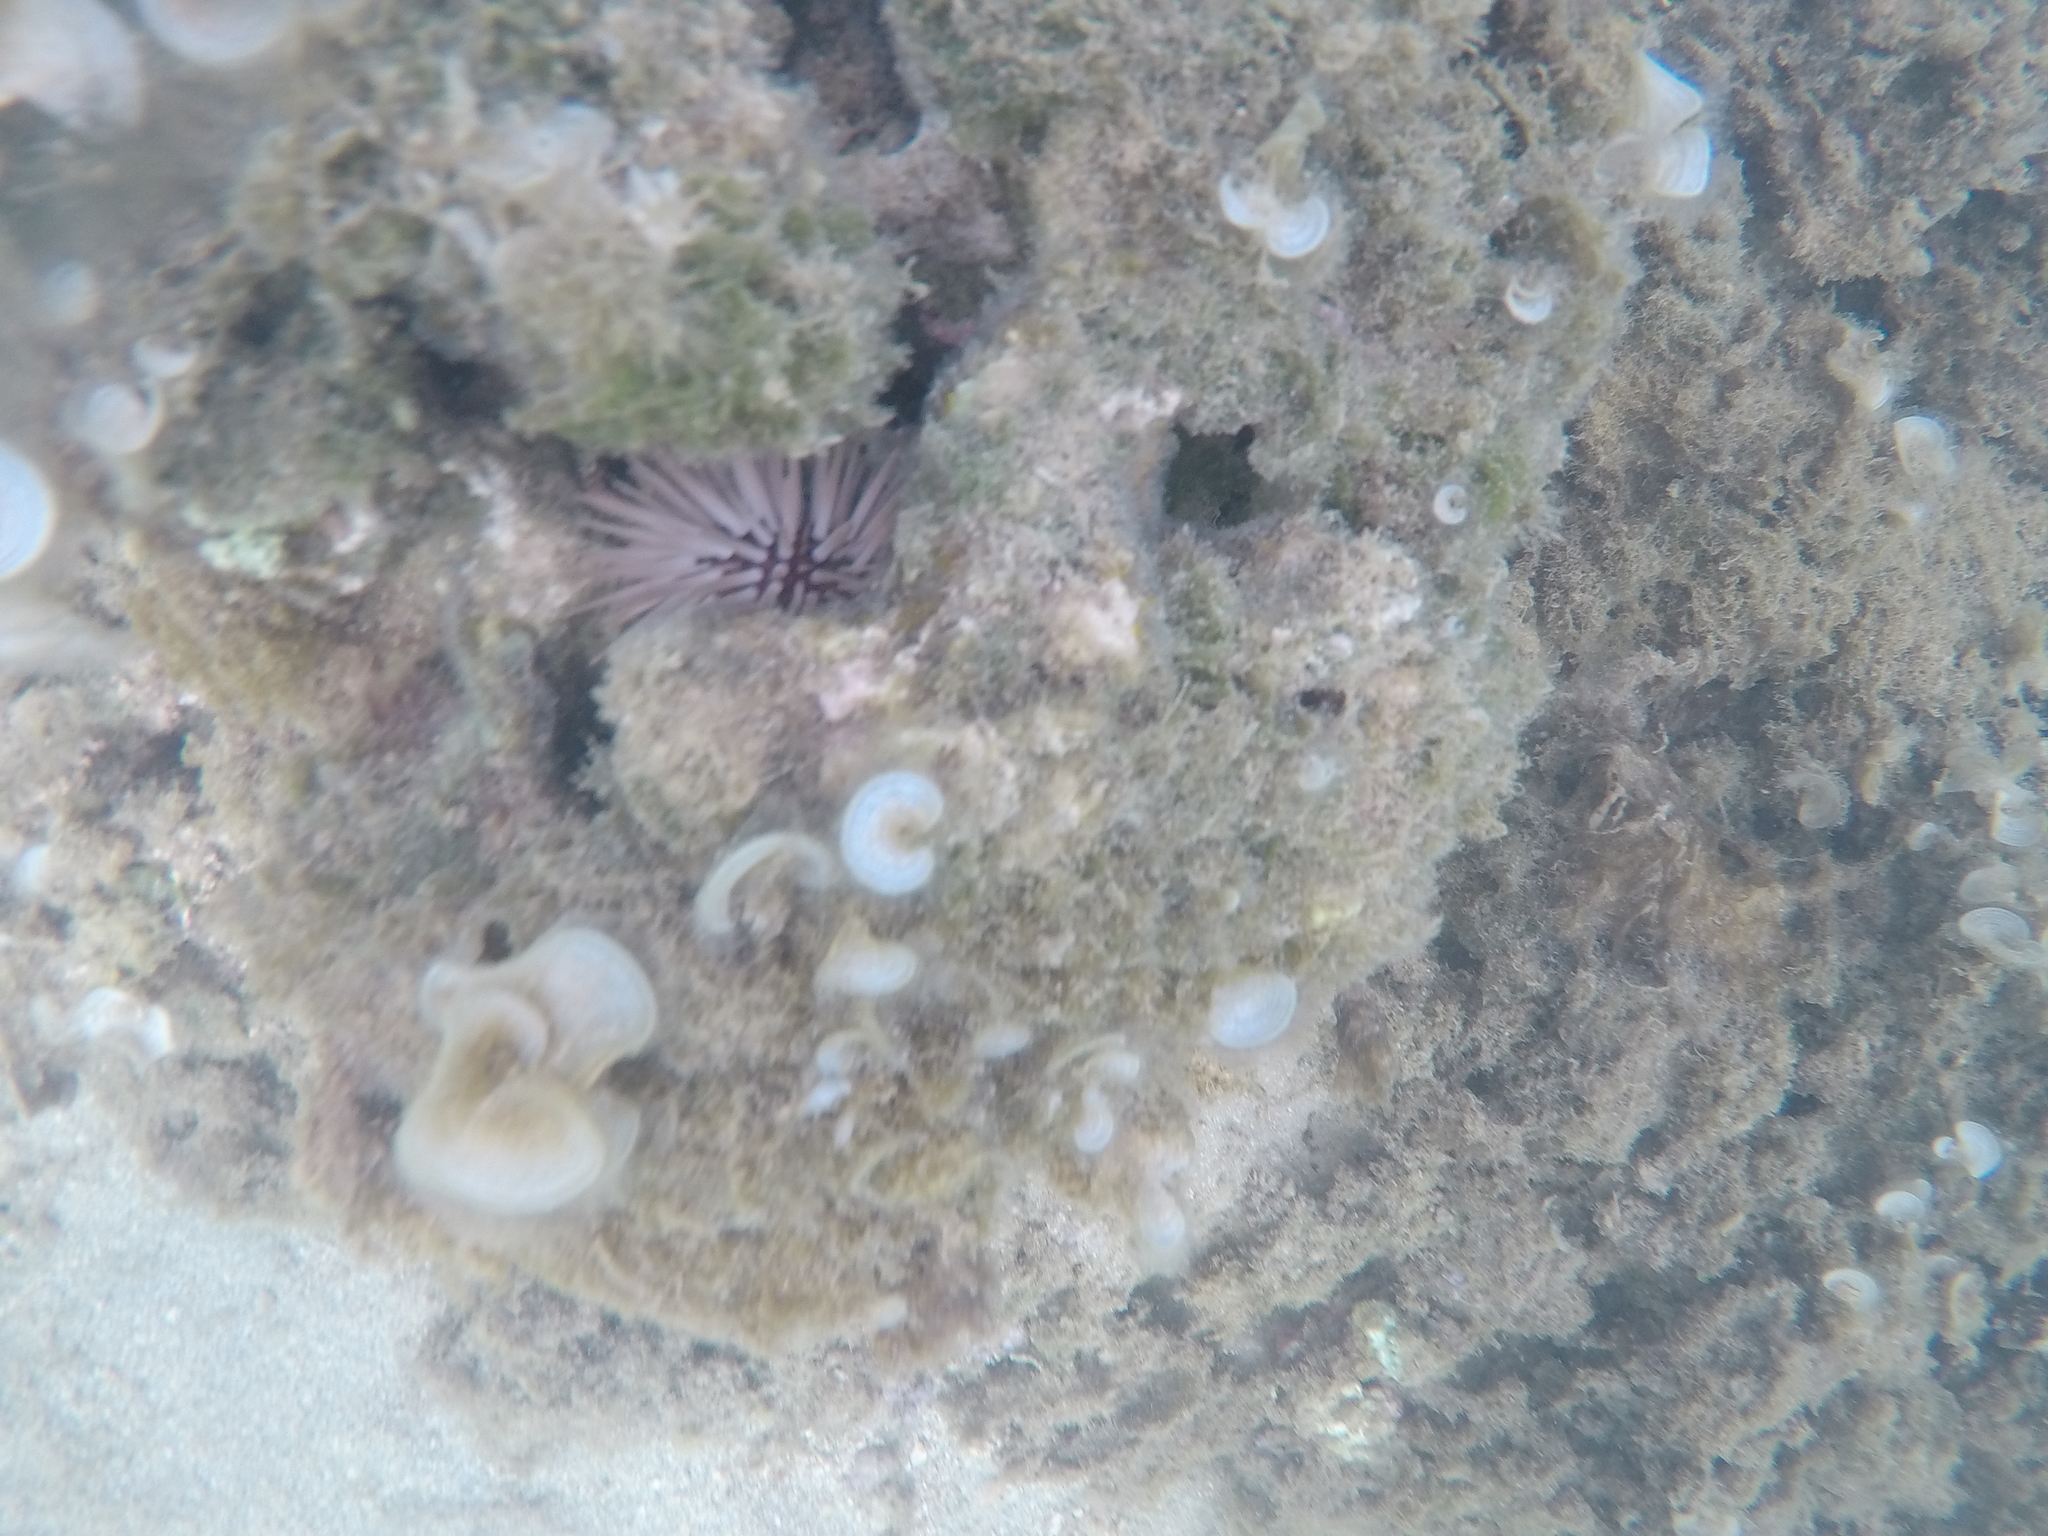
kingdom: Animalia
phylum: Echinodermata
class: Echinoidea
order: Camarodonta
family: Echinometridae
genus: Echinometra
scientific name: Echinometra mathaei
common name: Rock-boring urchin
